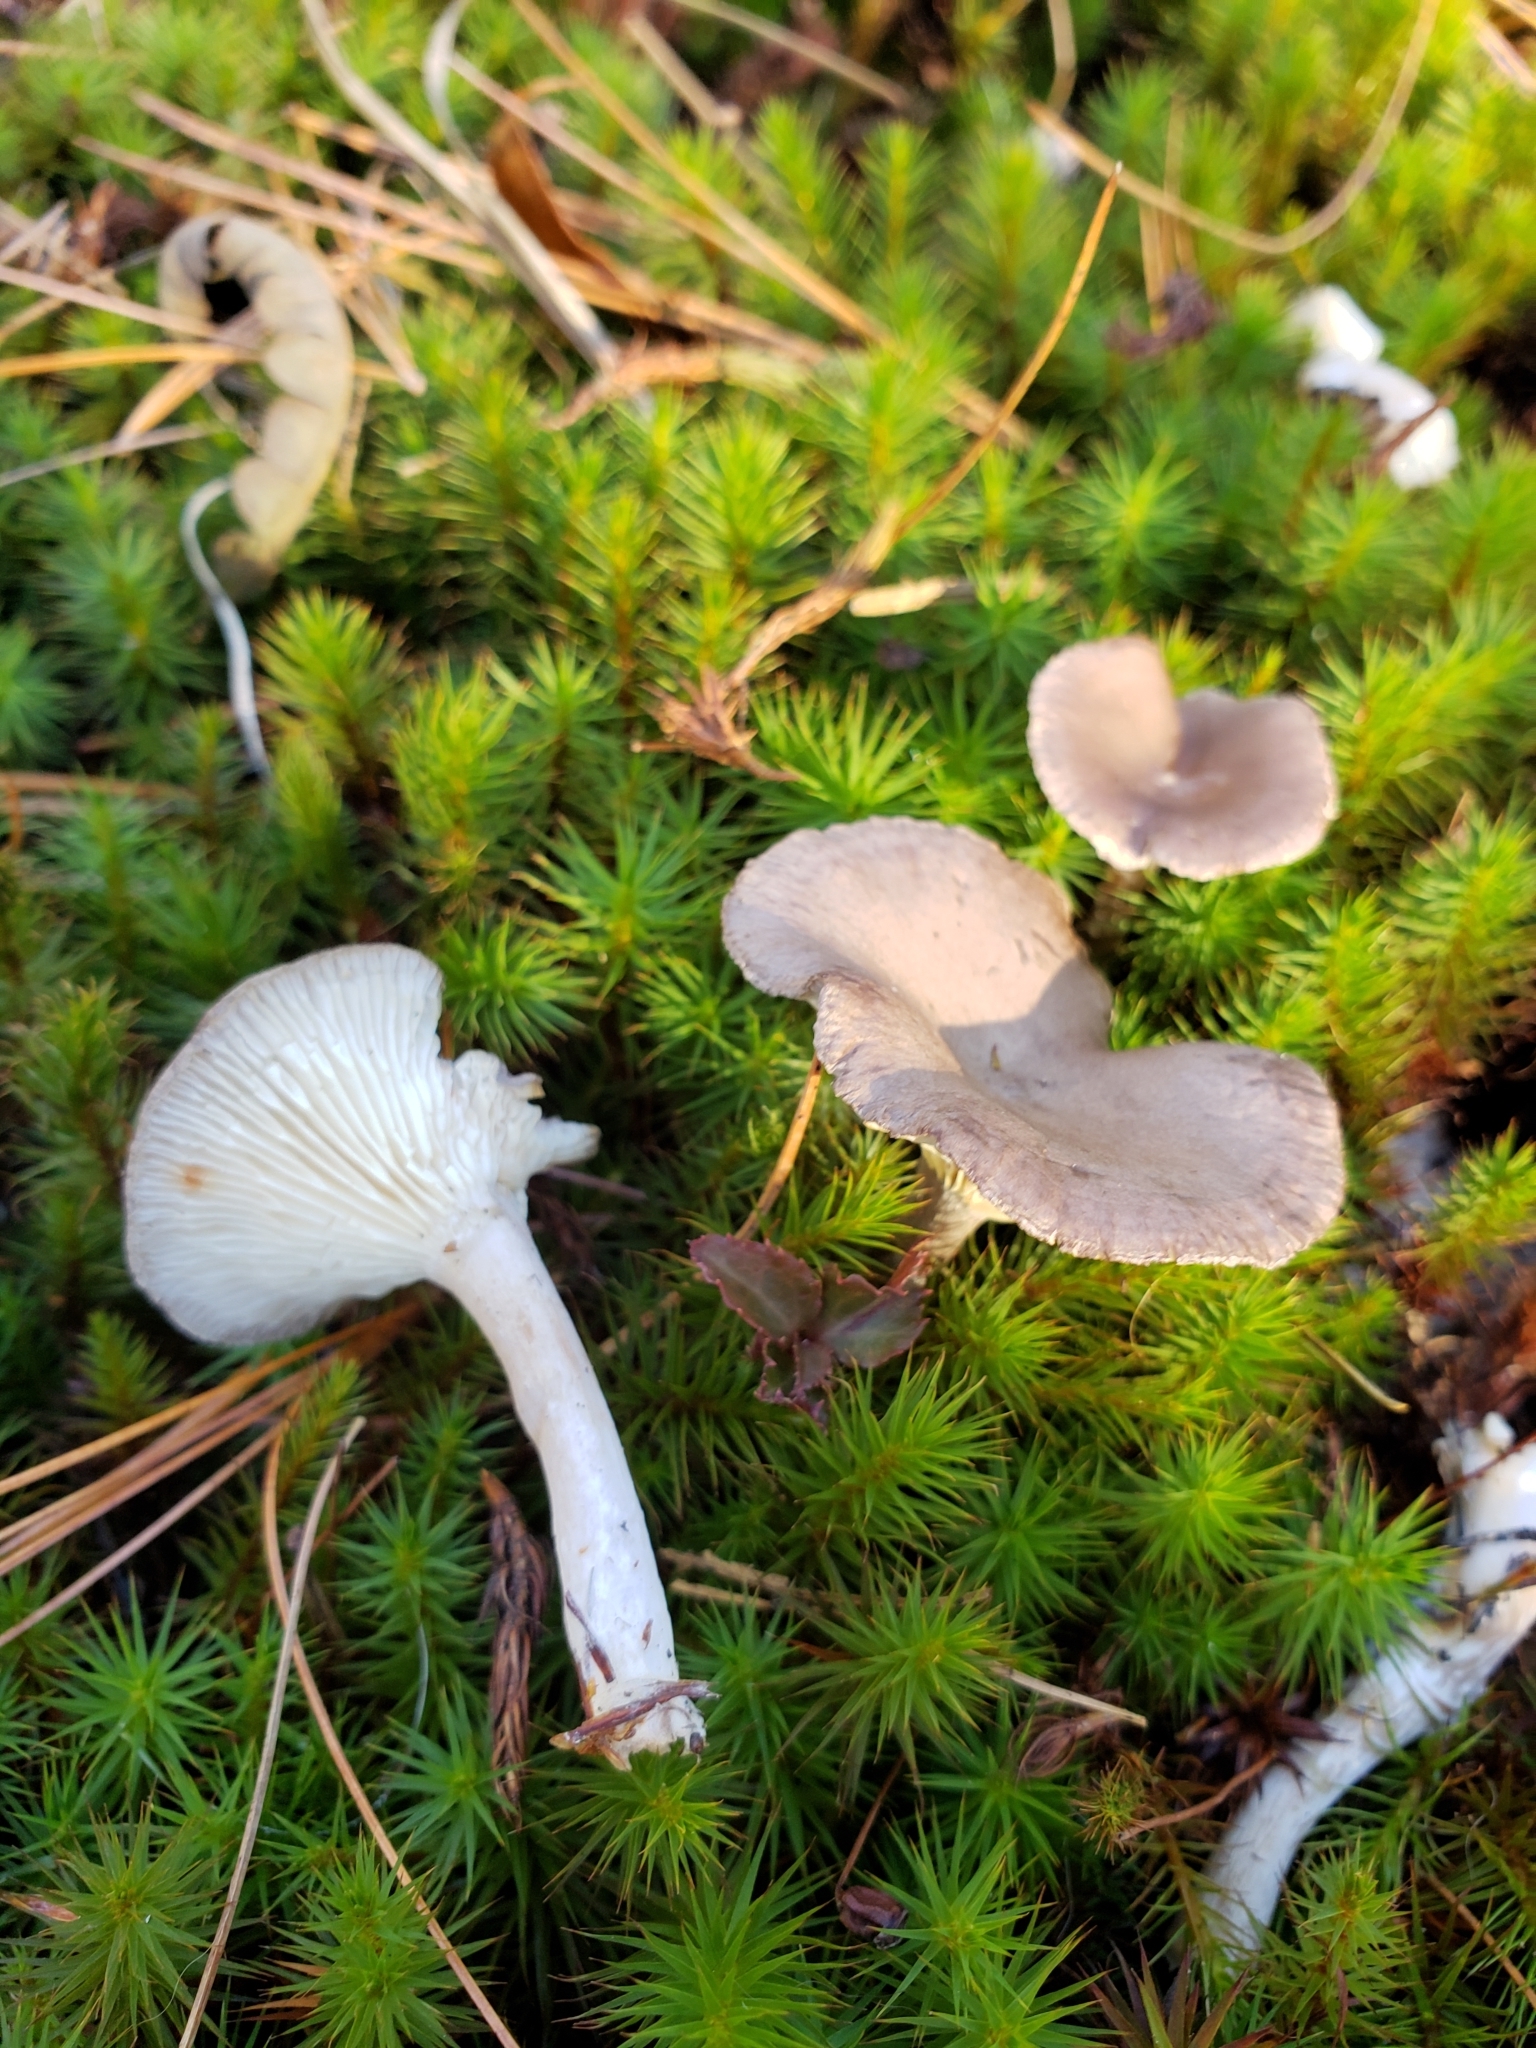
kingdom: Fungi
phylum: Basidiomycota
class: Agaricomycetes
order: Agaricales
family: Hygrophoraceae
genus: Cantharellula
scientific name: Cantharellula umbonata
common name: The humpback
